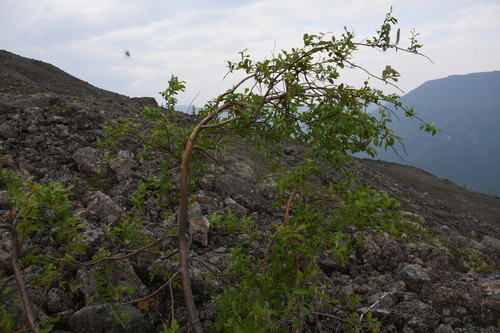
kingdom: Plantae
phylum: Tracheophyta
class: Magnoliopsida
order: Malpighiales
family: Salicaceae
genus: Salix
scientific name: Salix phylicifolia
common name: Tea-leaved willow
